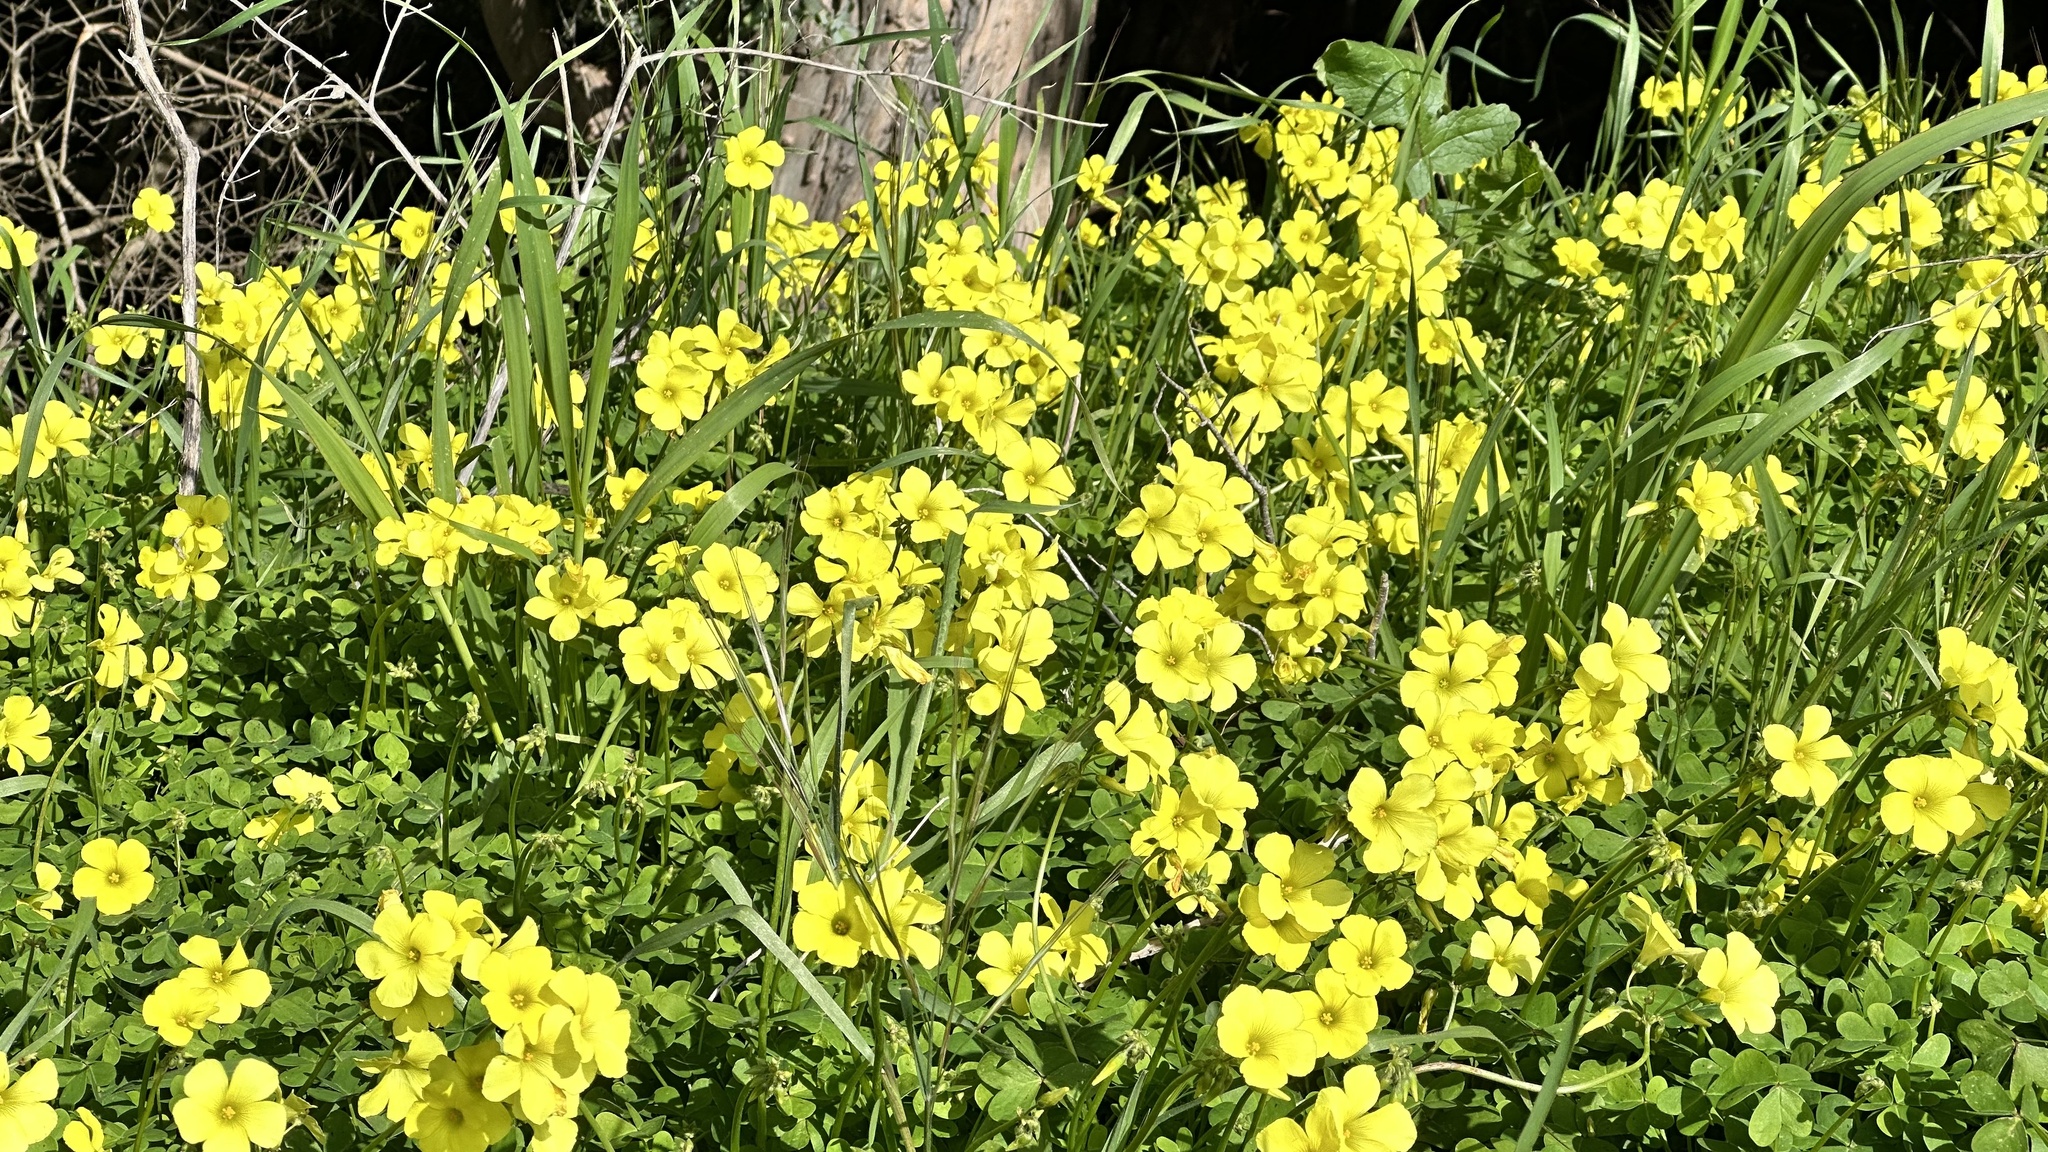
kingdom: Plantae
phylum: Tracheophyta
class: Magnoliopsida
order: Oxalidales
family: Oxalidaceae
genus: Oxalis
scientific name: Oxalis pes-caprae
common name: Bermuda-buttercup
